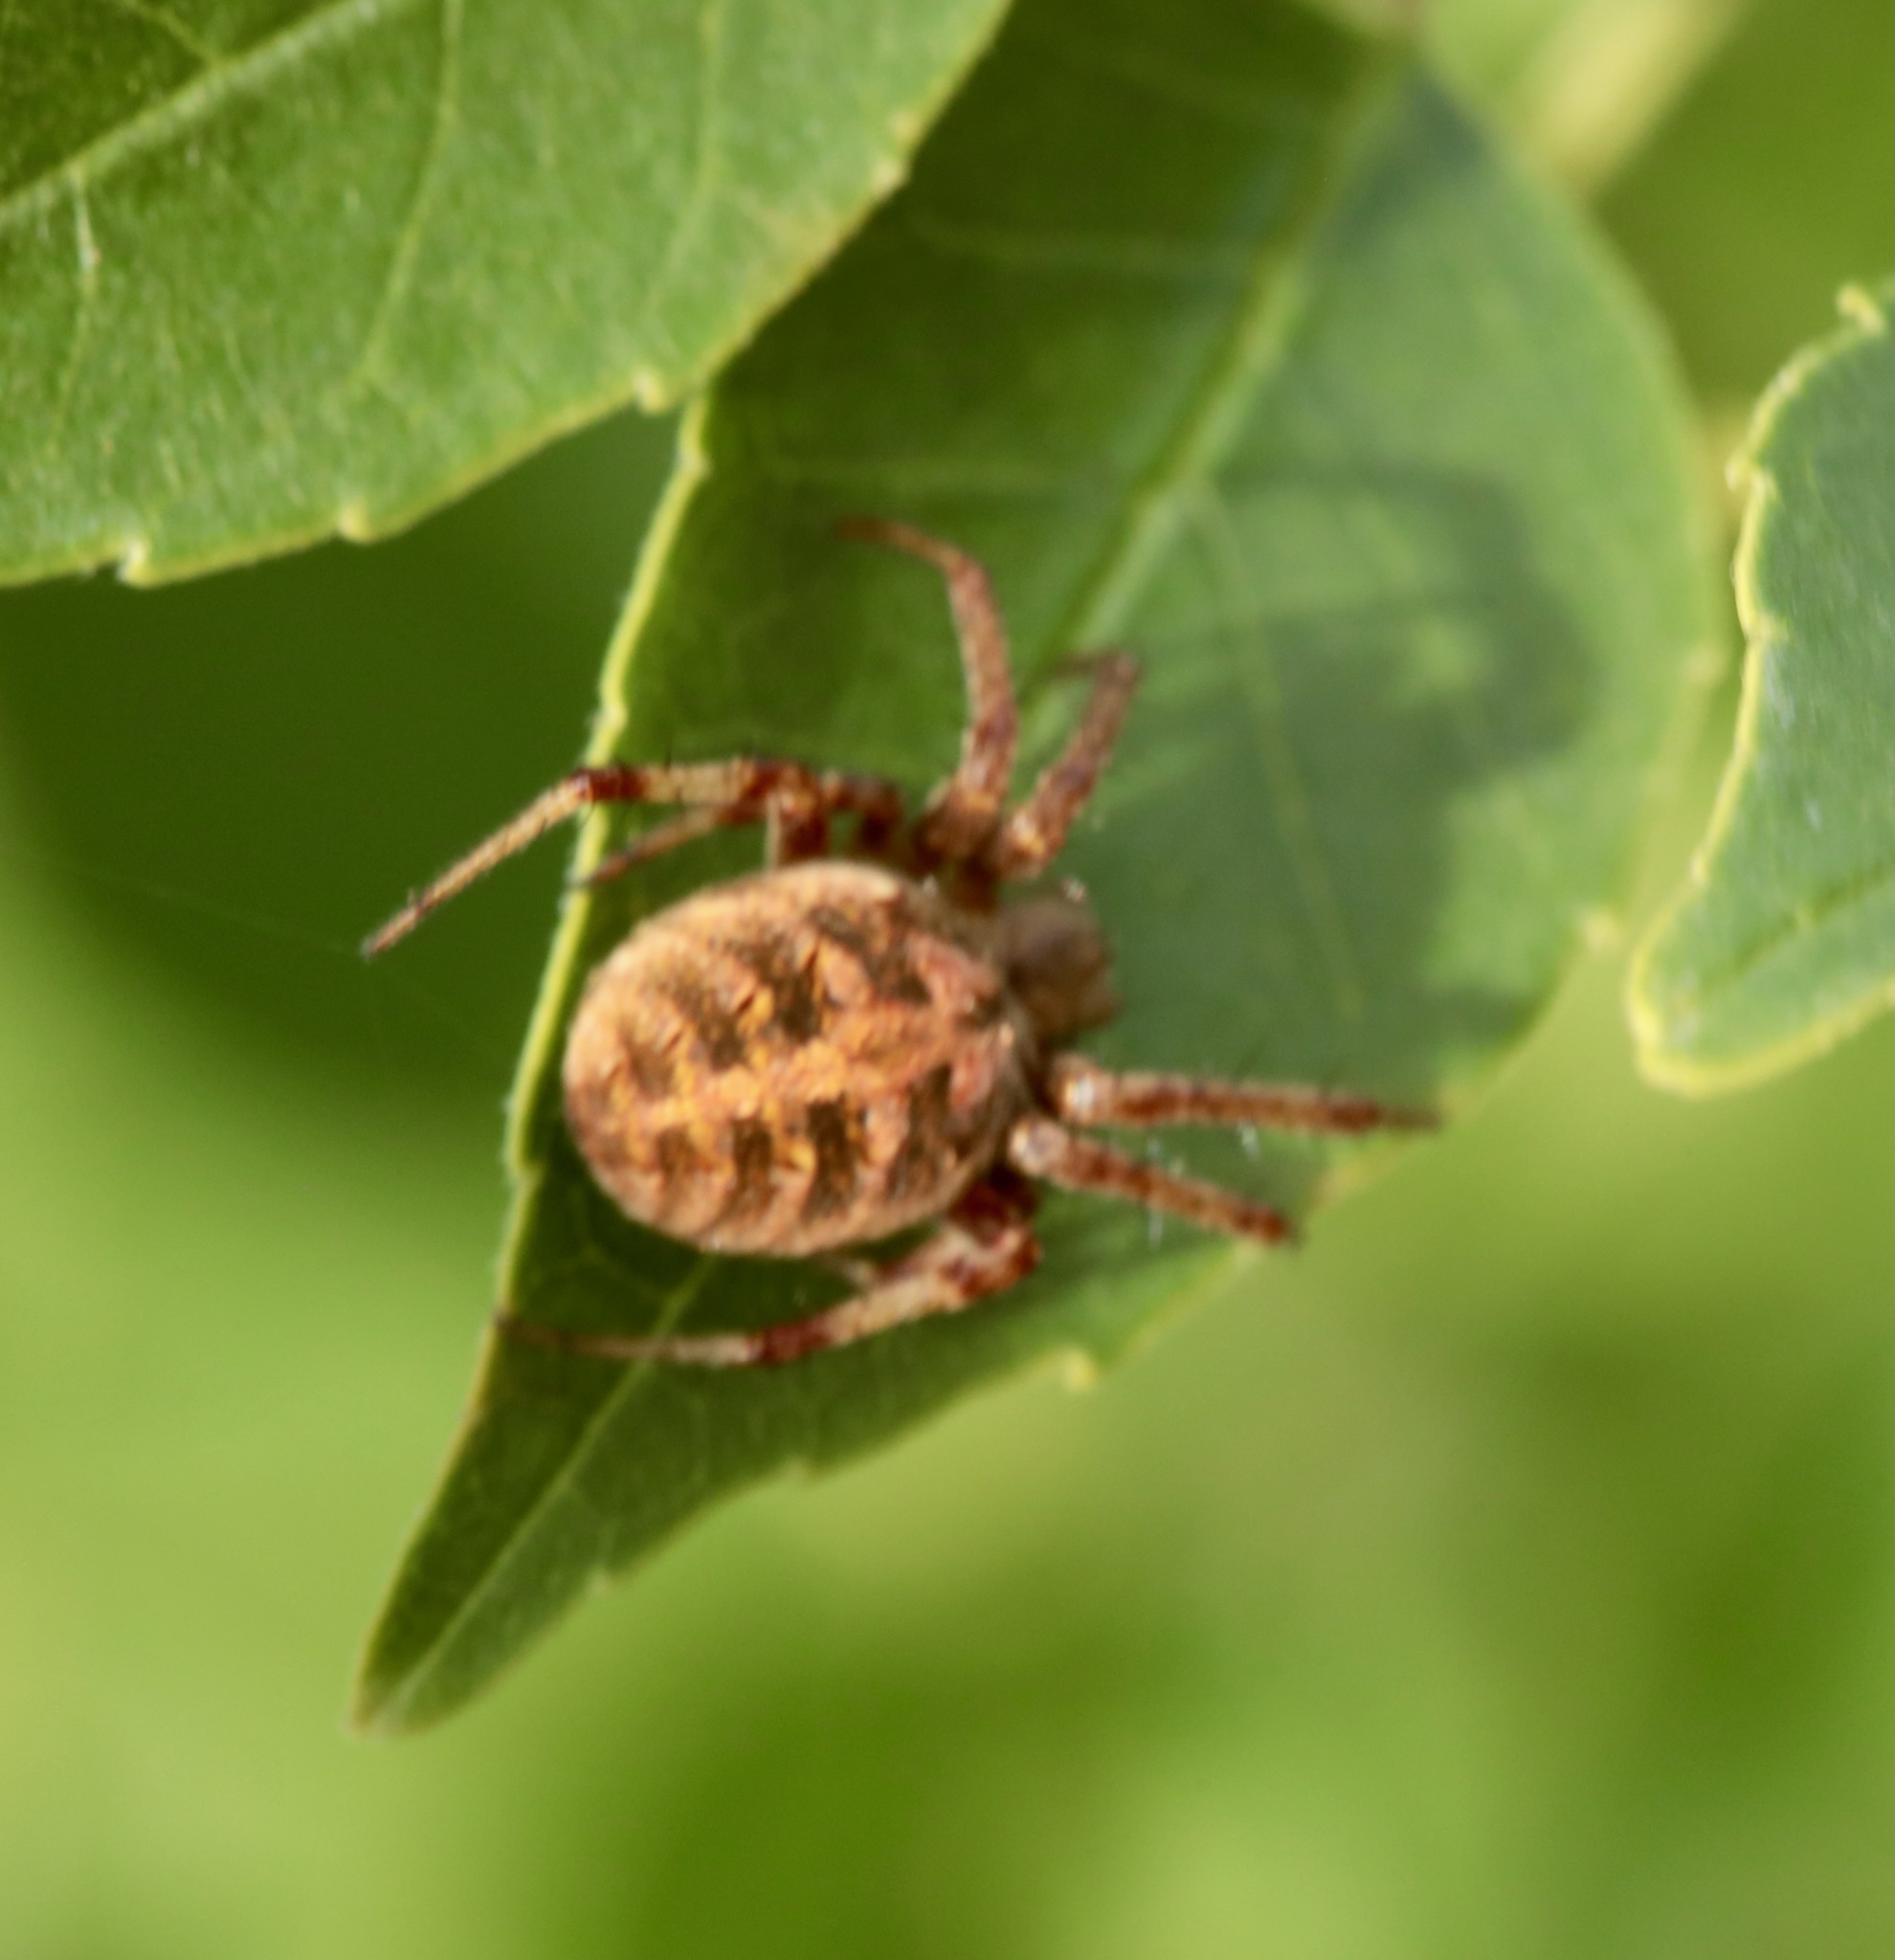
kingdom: Animalia
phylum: Arthropoda
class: Arachnida
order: Araneae
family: Araneidae
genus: Neoscona
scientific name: Neoscona arabesca
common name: Orb weavers
